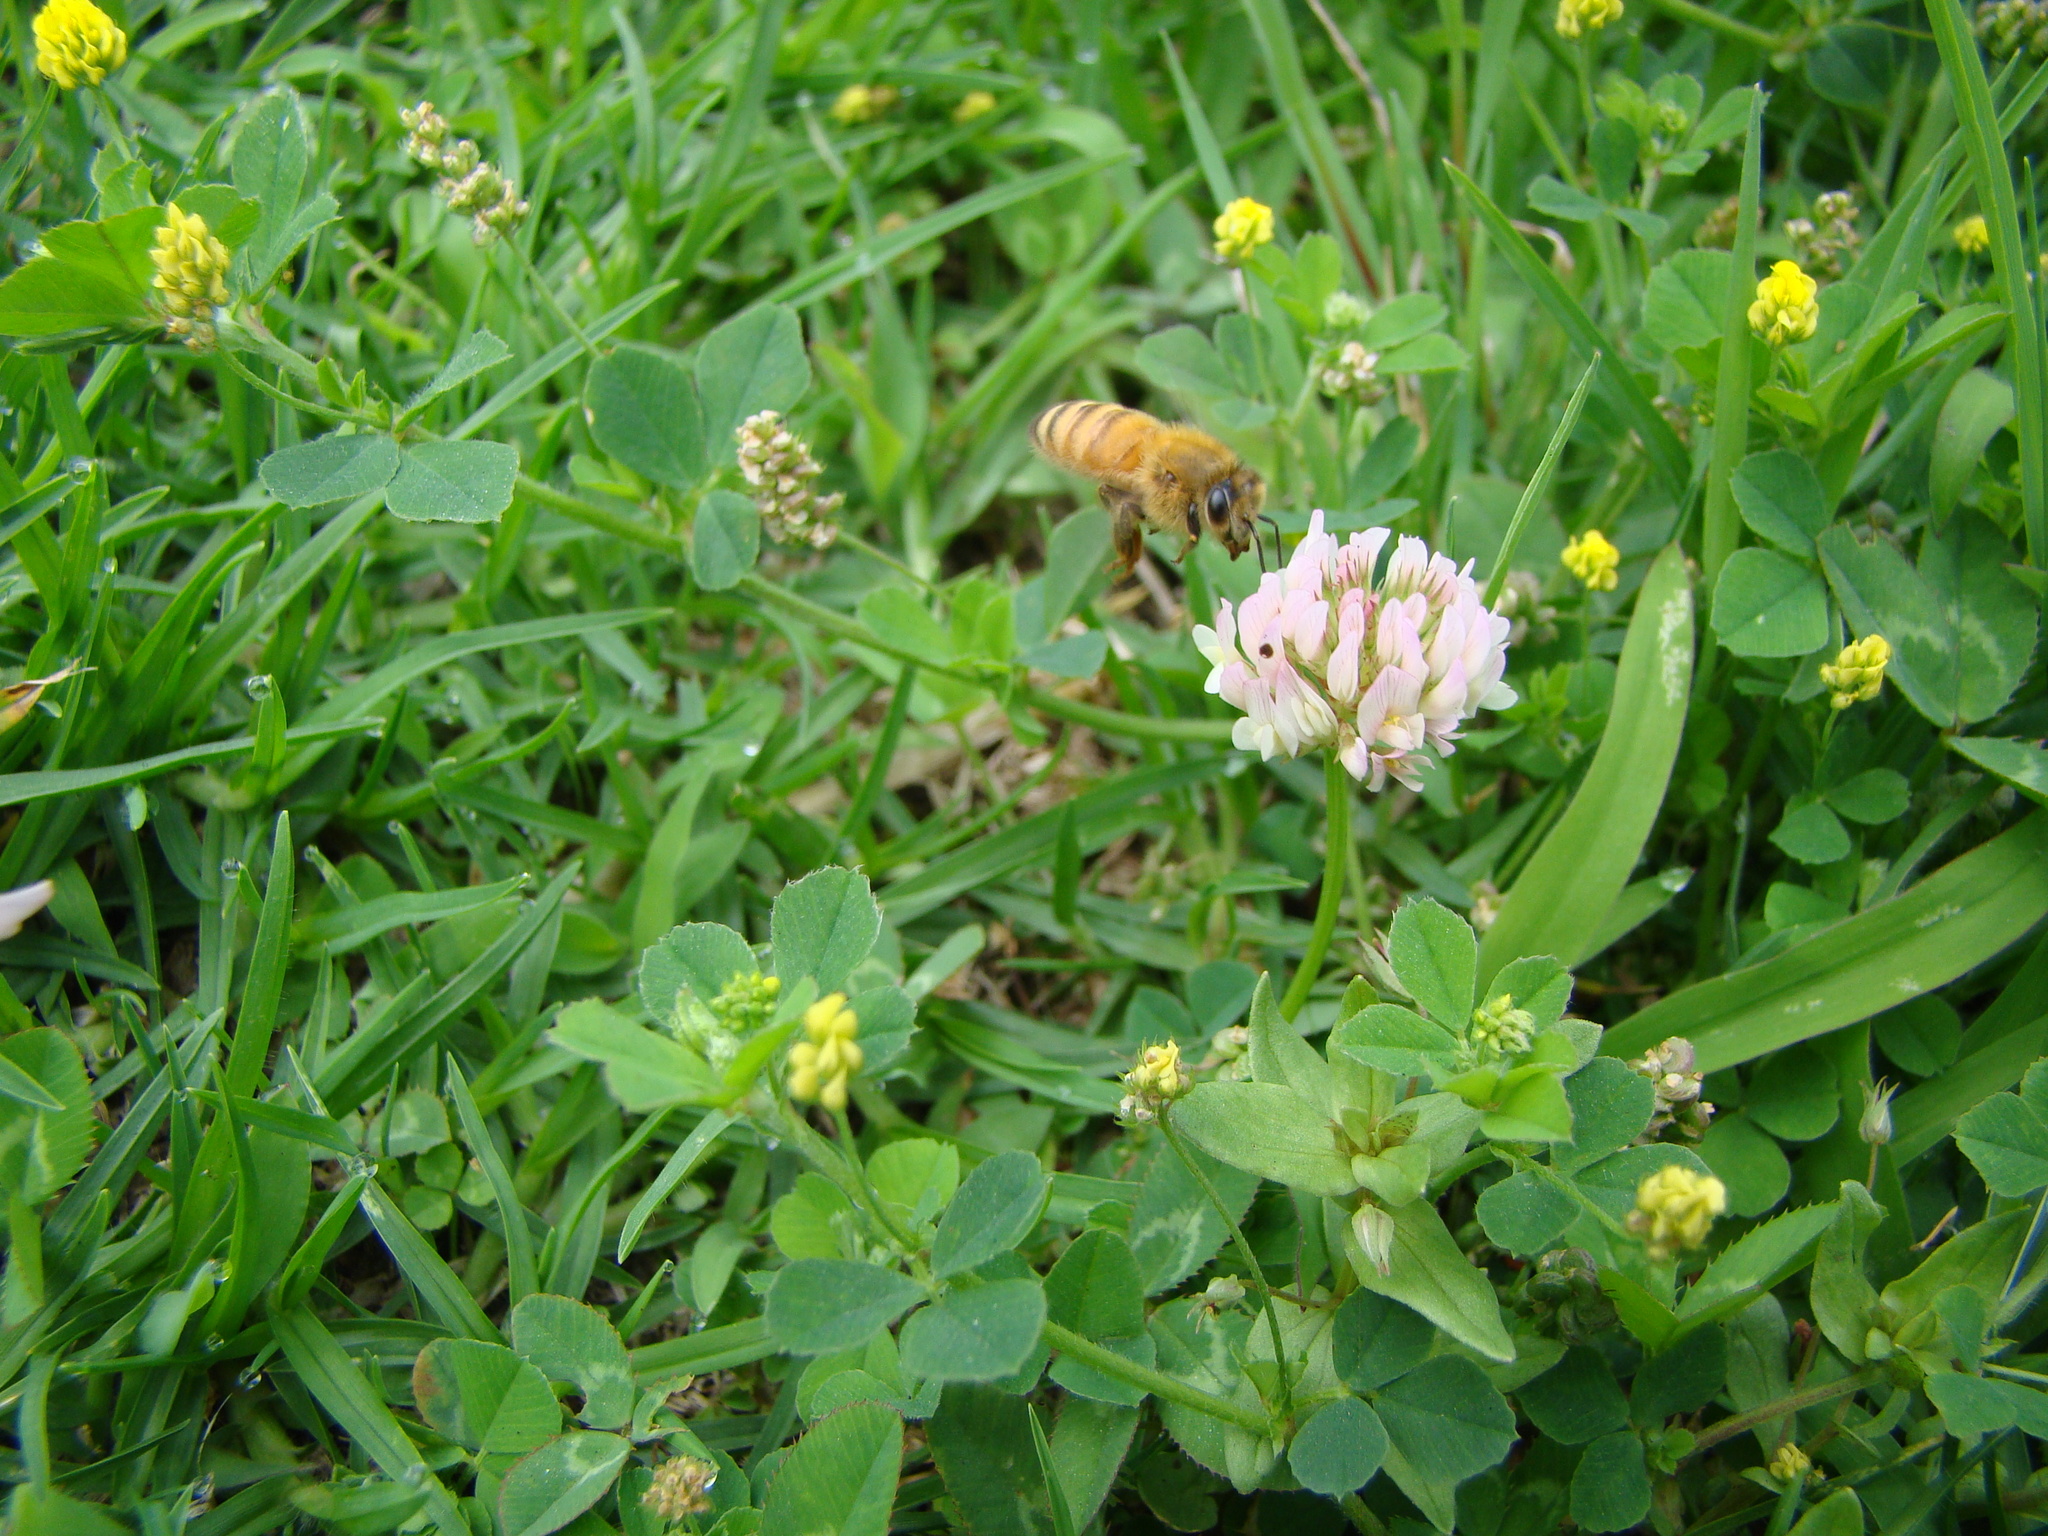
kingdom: Animalia
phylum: Arthropoda
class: Insecta
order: Hymenoptera
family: Apidae
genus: Apis
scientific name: Apis mellifera
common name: Honey bee
